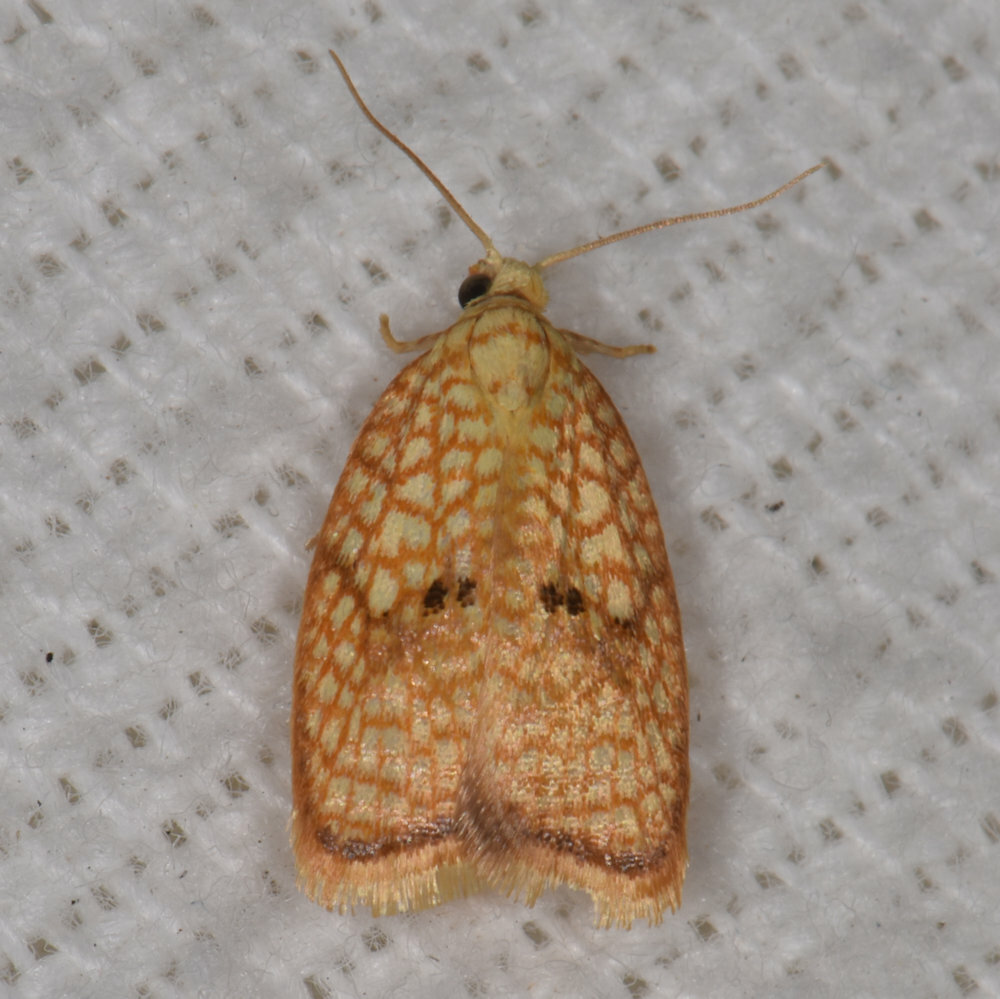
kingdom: Animalia
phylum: Arthropoda
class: Insecta
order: Lepidoptera
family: Tortricidae
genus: Acleris
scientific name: Acleris forsskaleana
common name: Maple button
